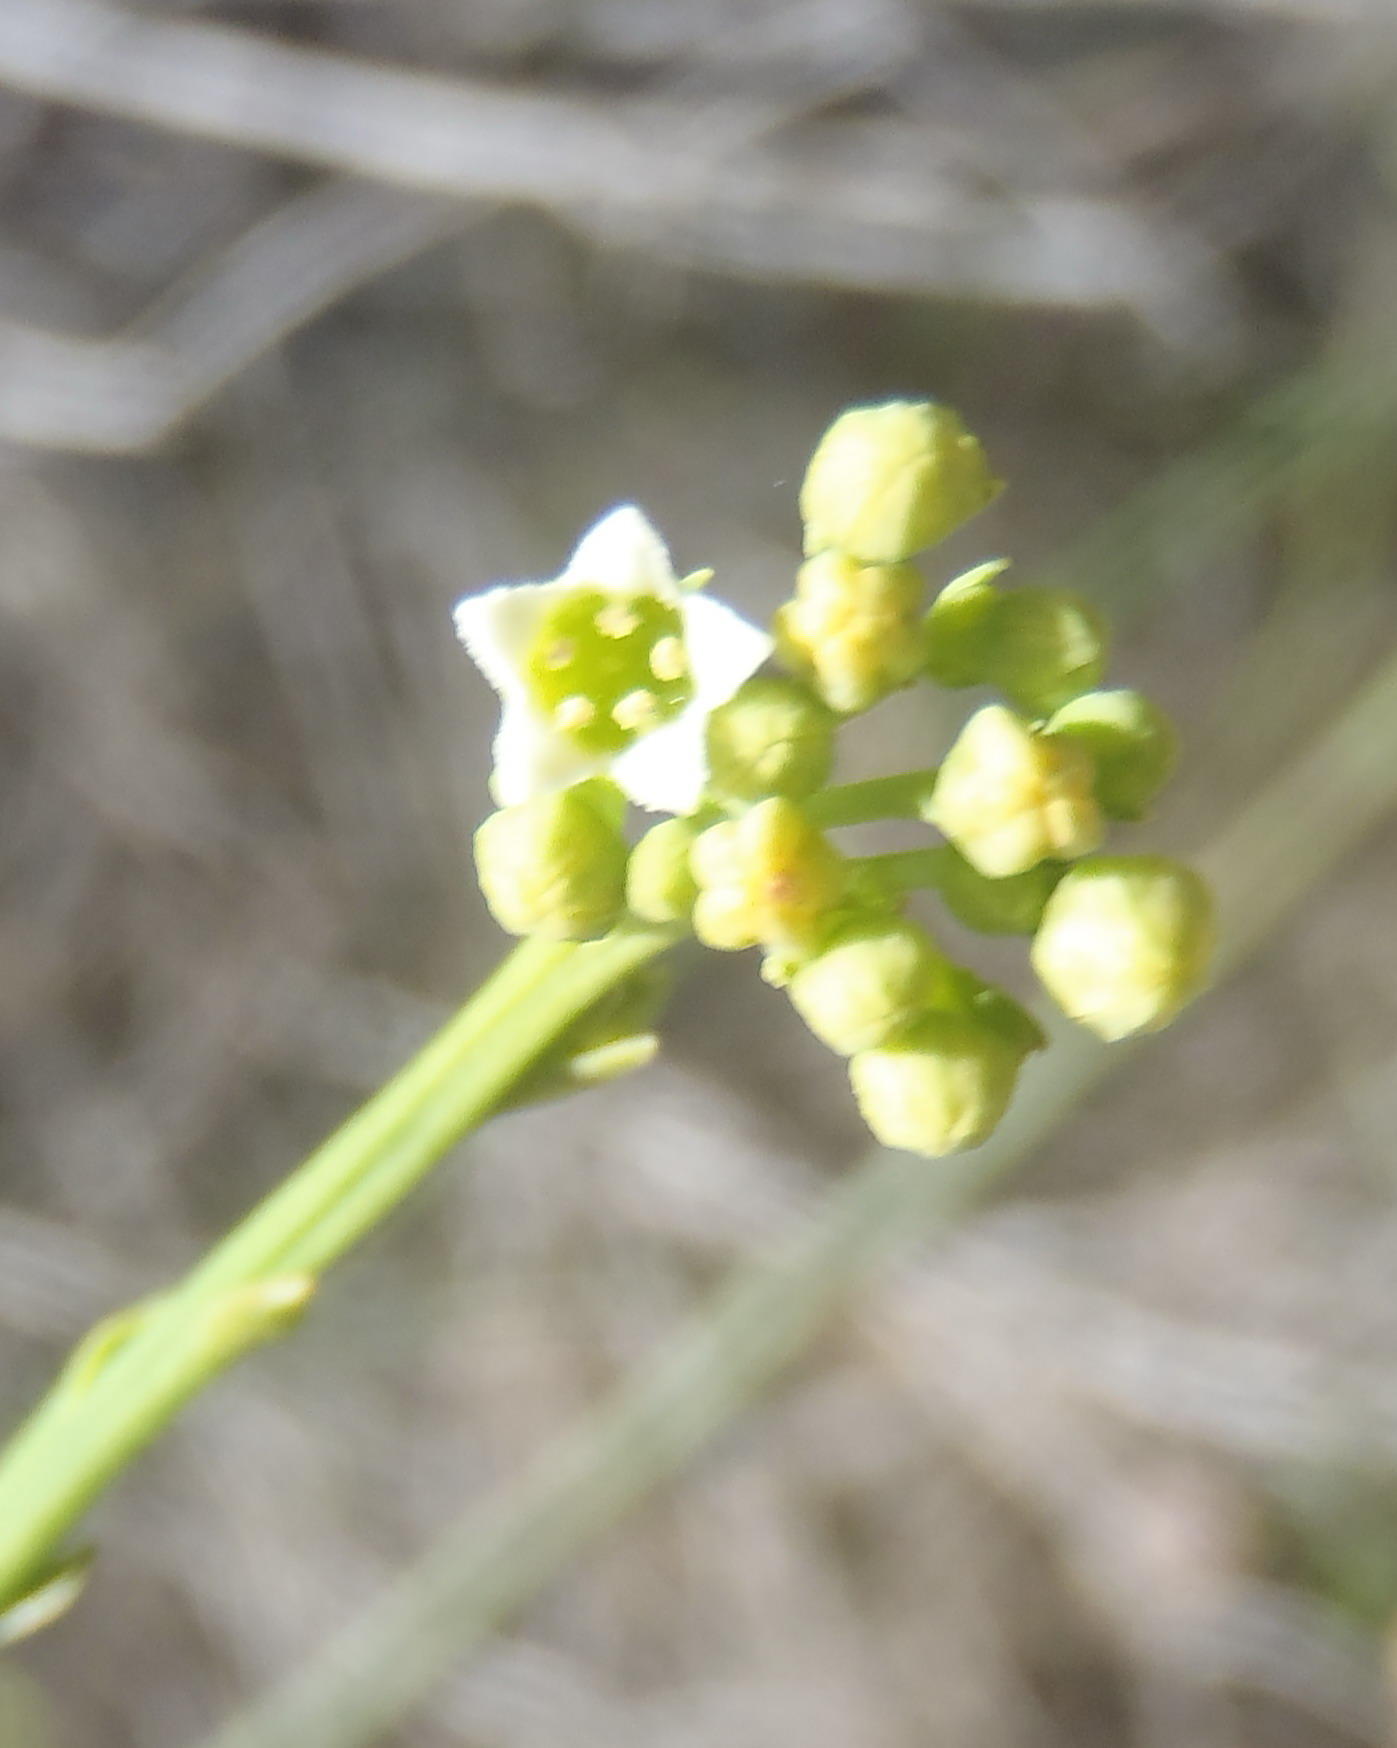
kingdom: Plantae
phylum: Tracheophyta
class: Magnoliopsida
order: Santalales
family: Thesiaceae
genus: Thesium
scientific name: Thesium strictum
